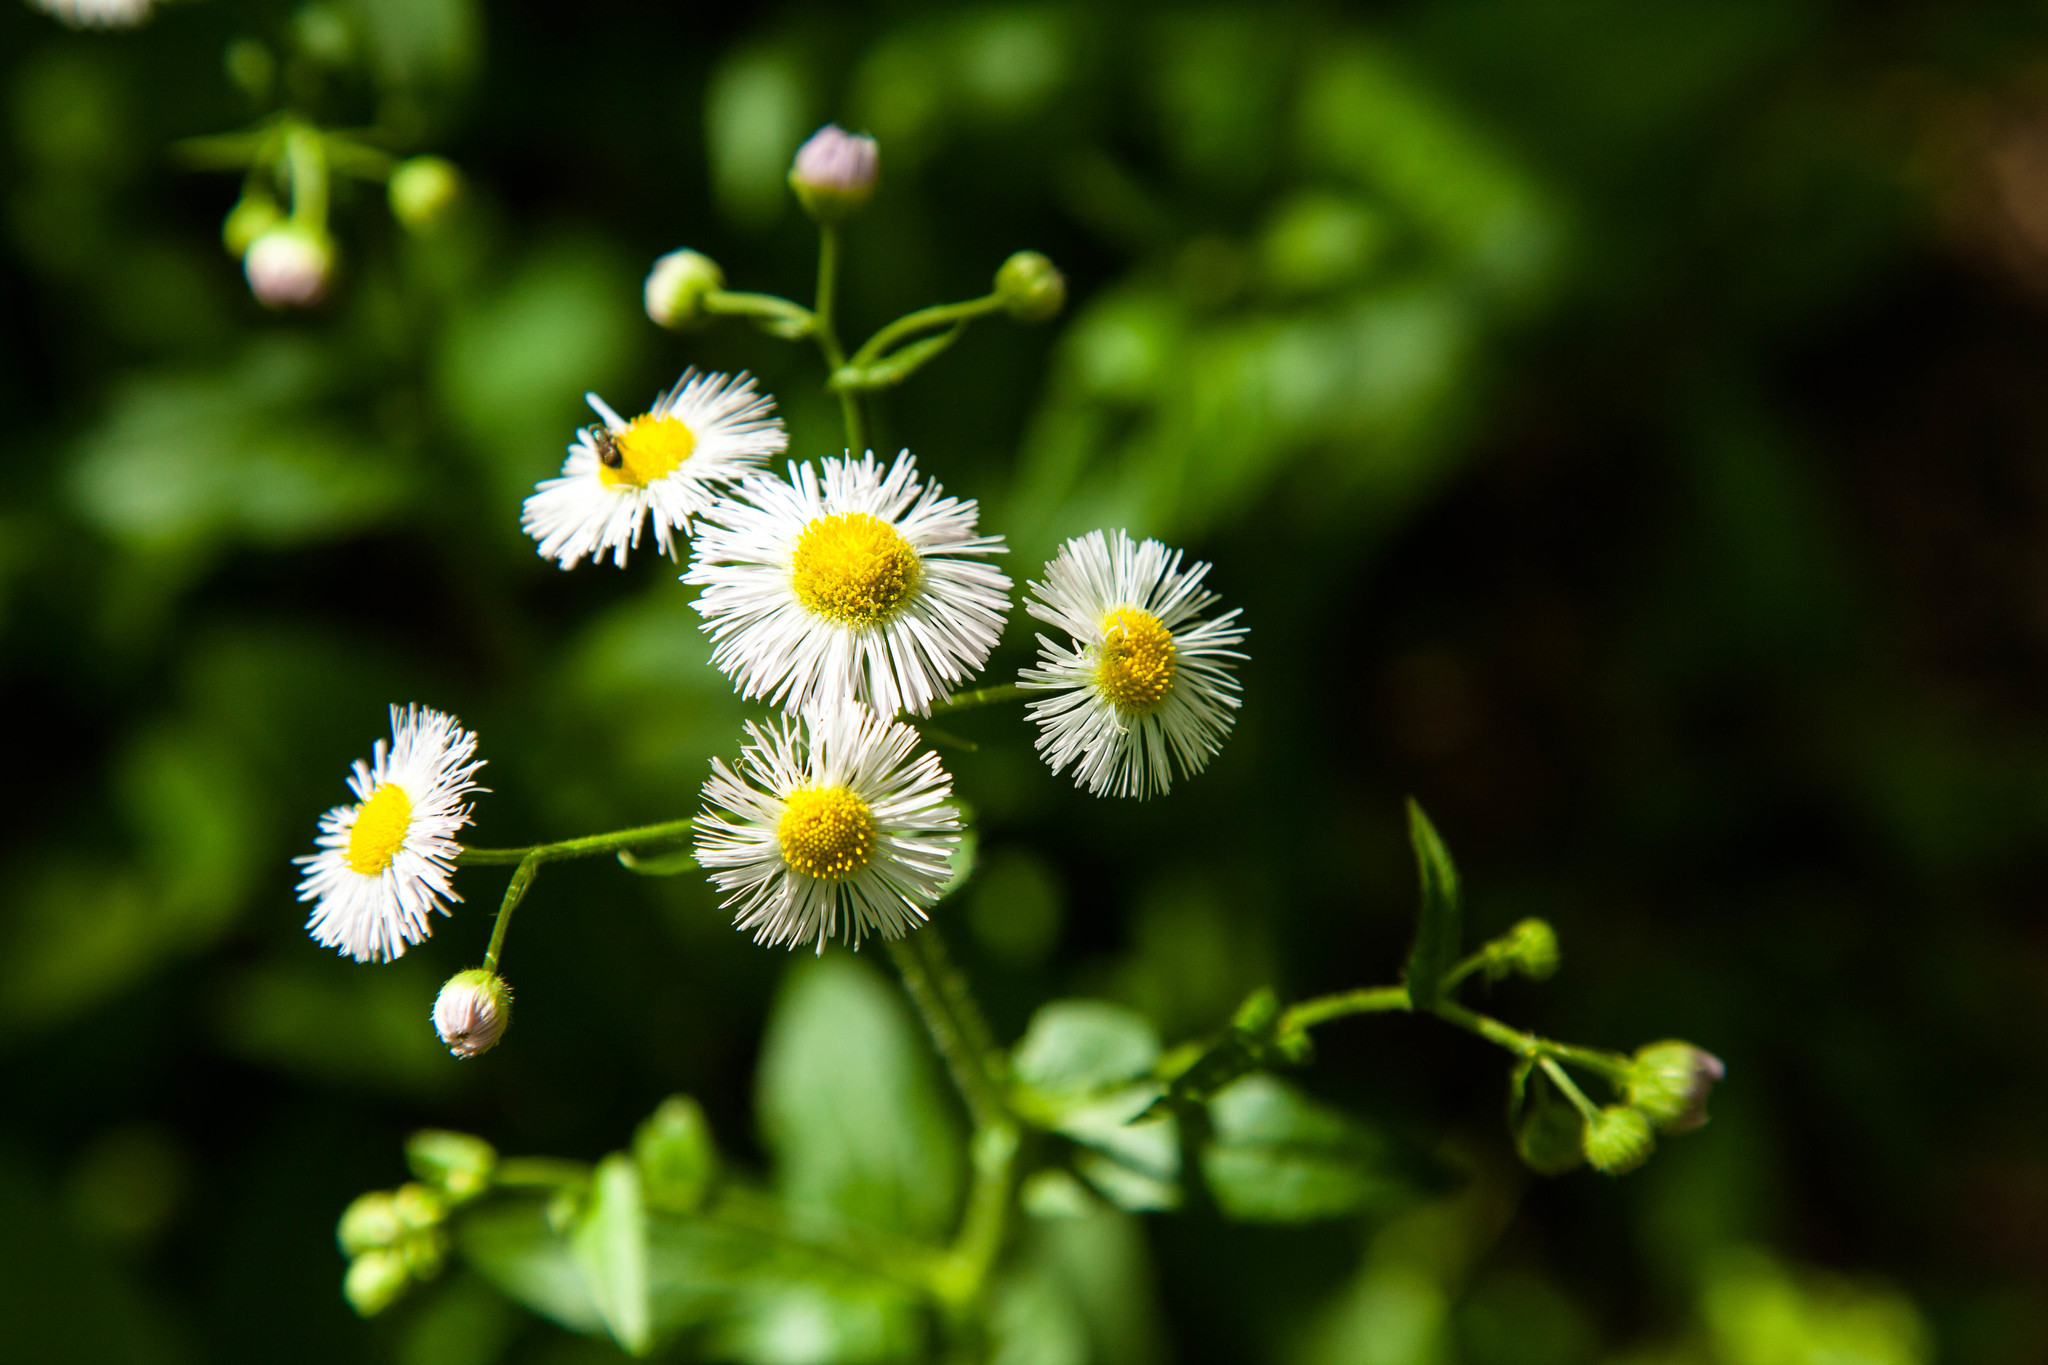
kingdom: Plantae
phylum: Tracheophyta
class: Magnoliopsida
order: Asterales
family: Asteraceae
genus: Erigeron
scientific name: Erigeron philadelphicus
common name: Robin's-plantain
